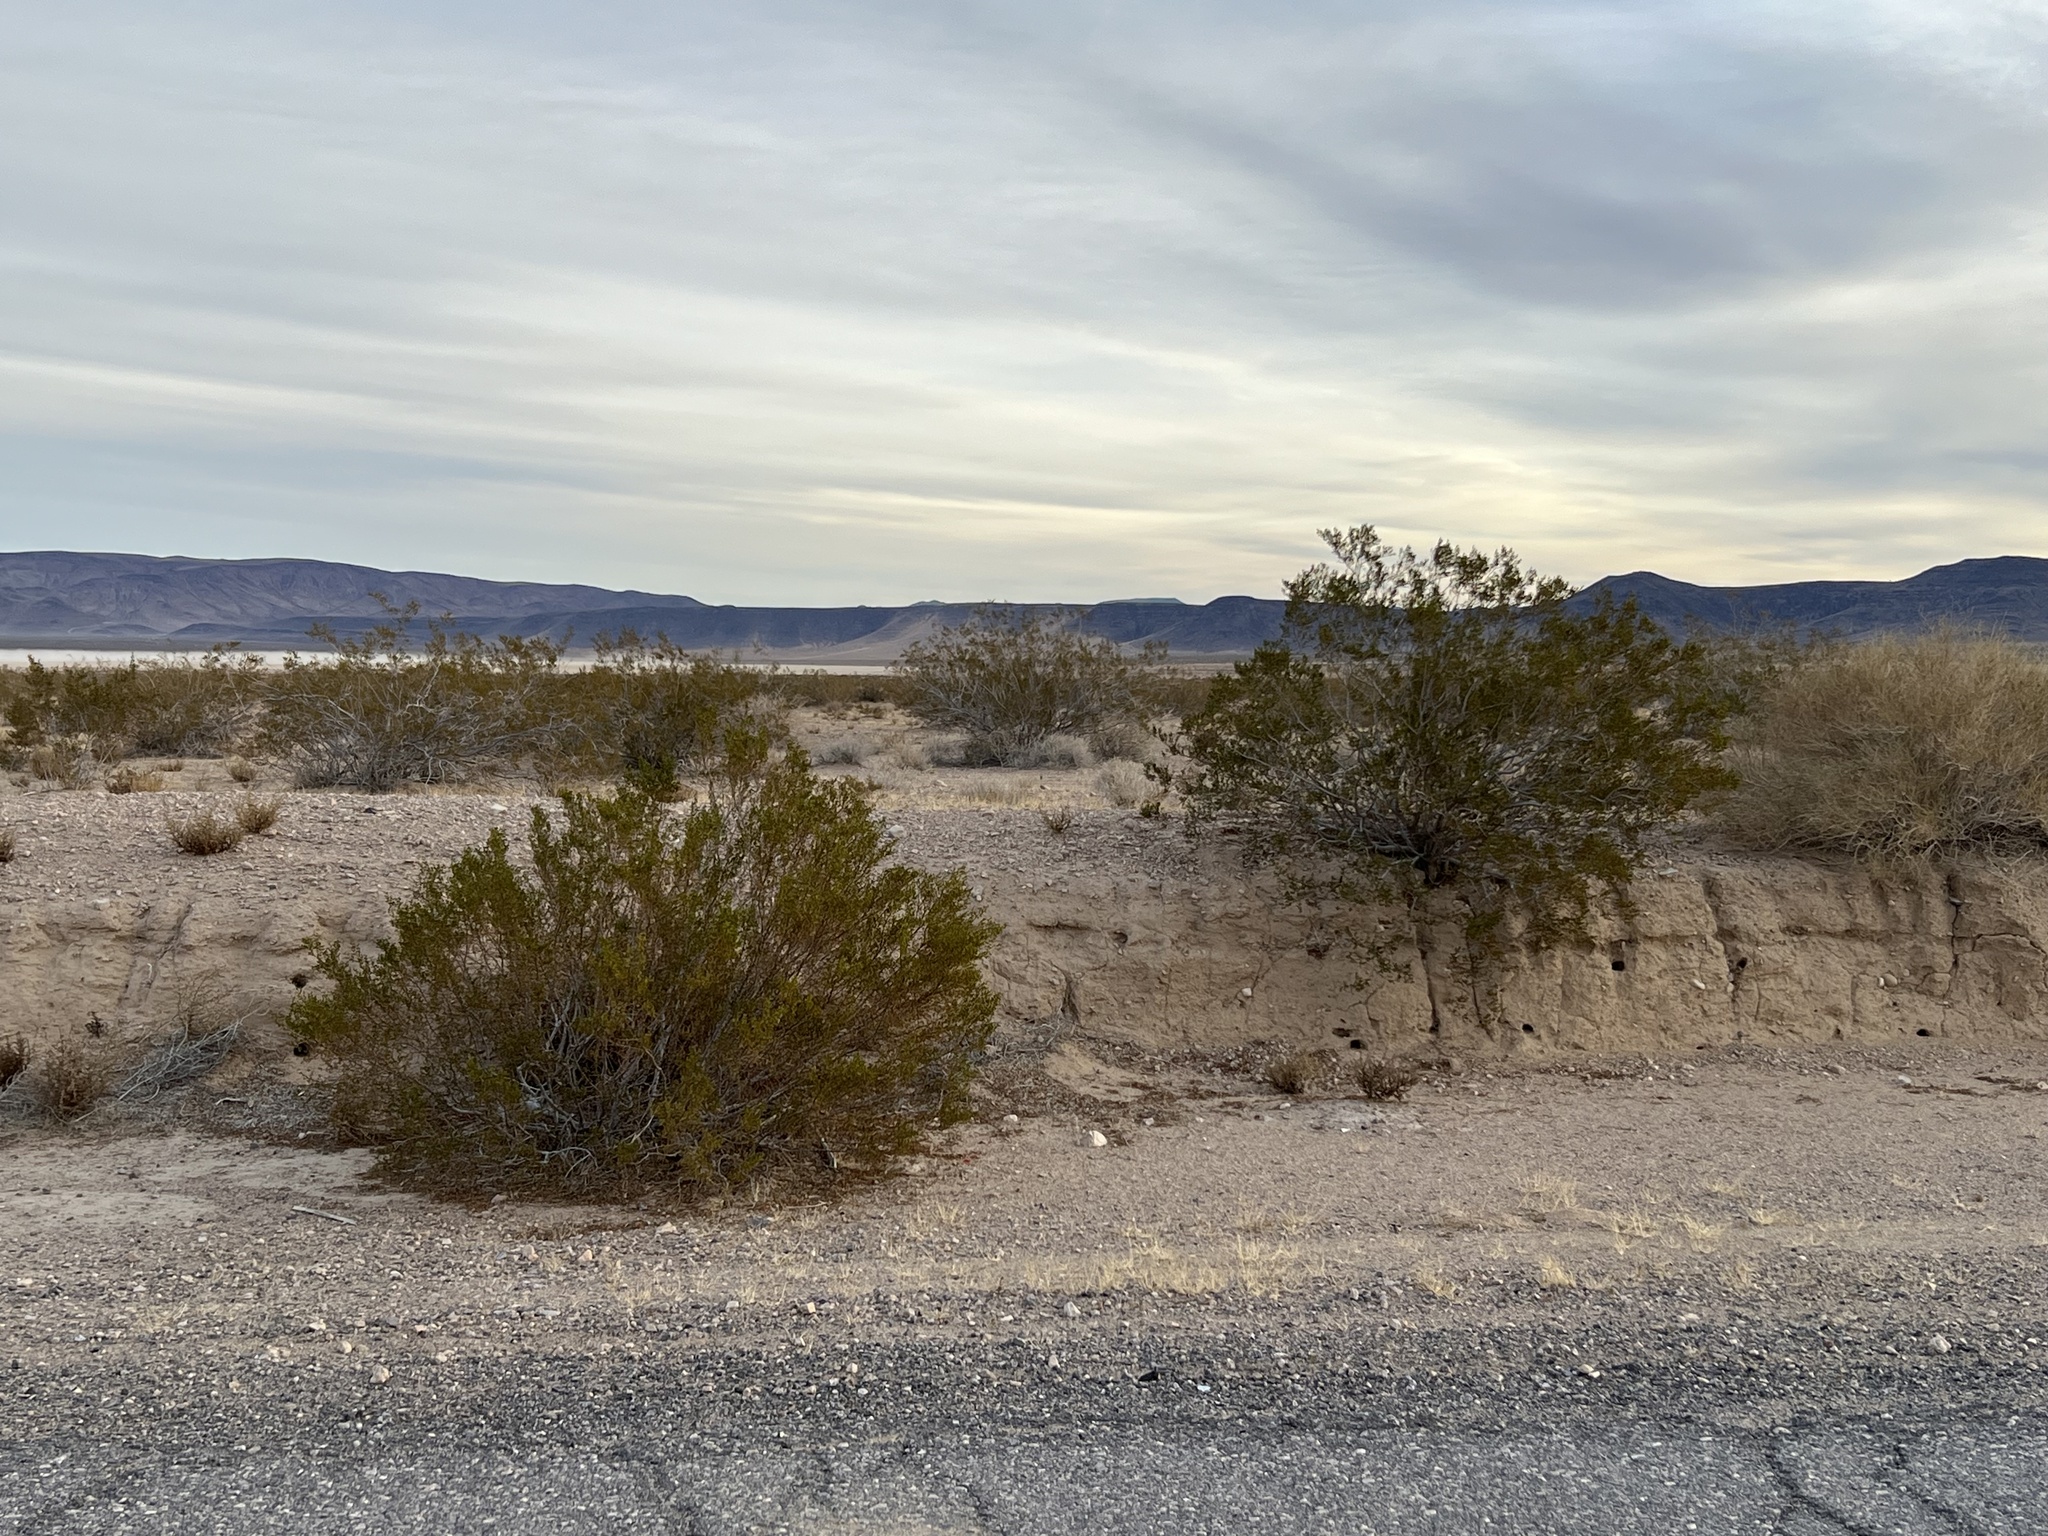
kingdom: Plantae
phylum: Tracheophyta
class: Magnoliopsida
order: Zygophyllales
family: Zygophyllaceae
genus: Larrea
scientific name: Larrea tridentata
